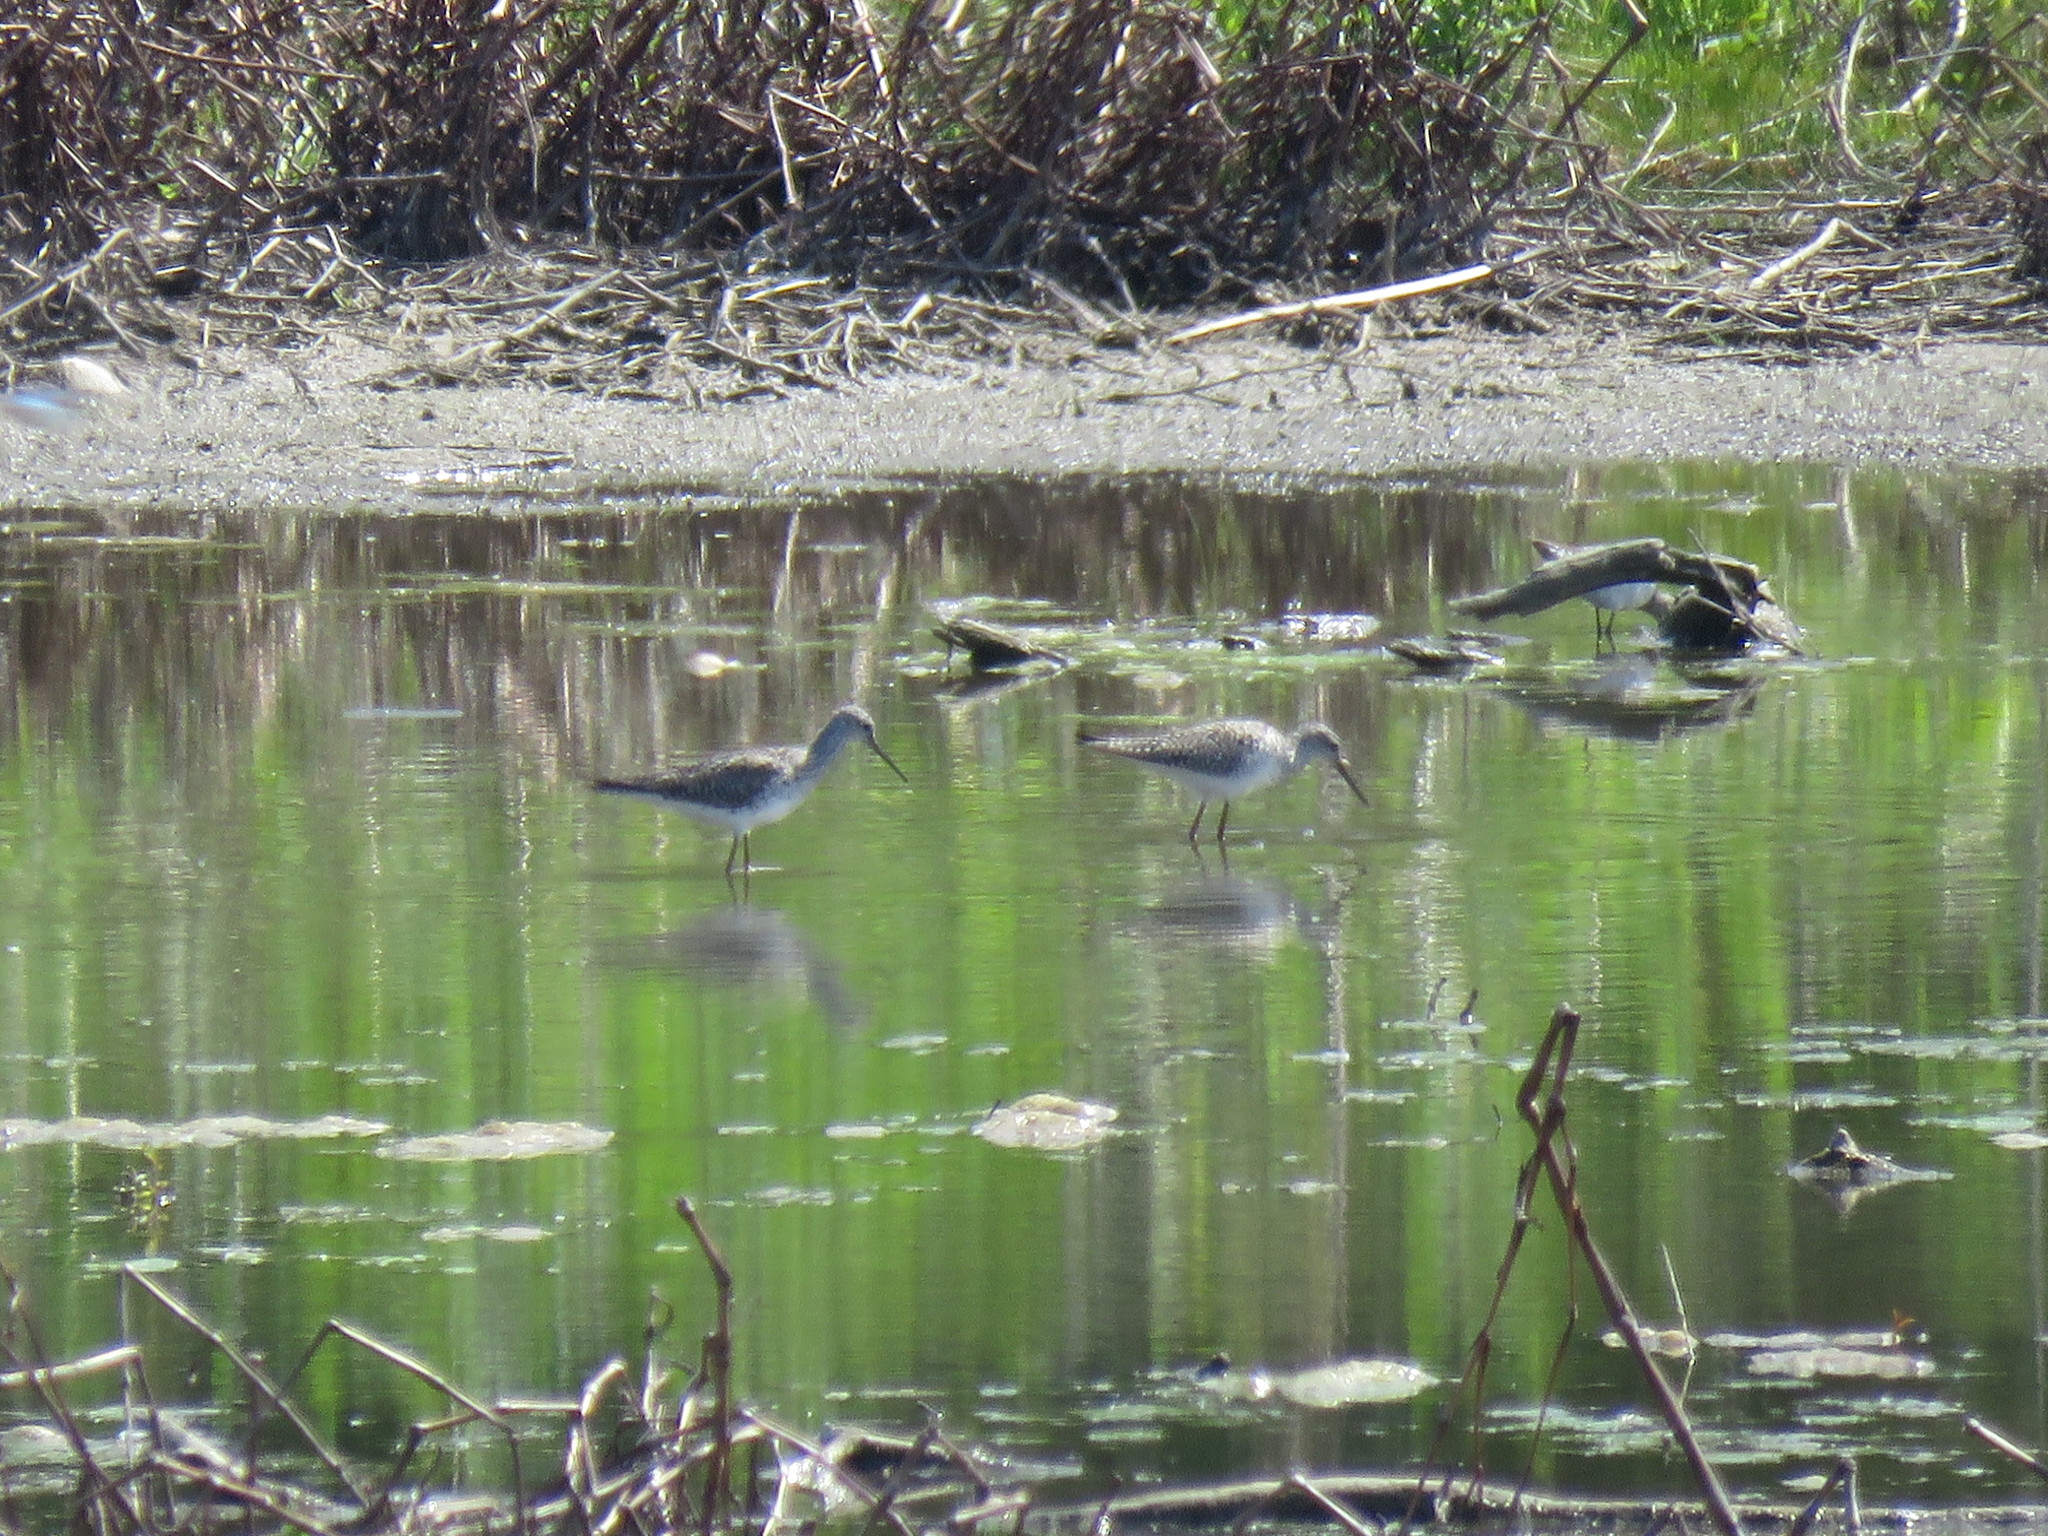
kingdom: Animalia
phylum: Chordata
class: Aves
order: Charadriiformes
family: Scolopacidae
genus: Tringa
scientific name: Tringa melanoleuca
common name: Greater yellowlegs
